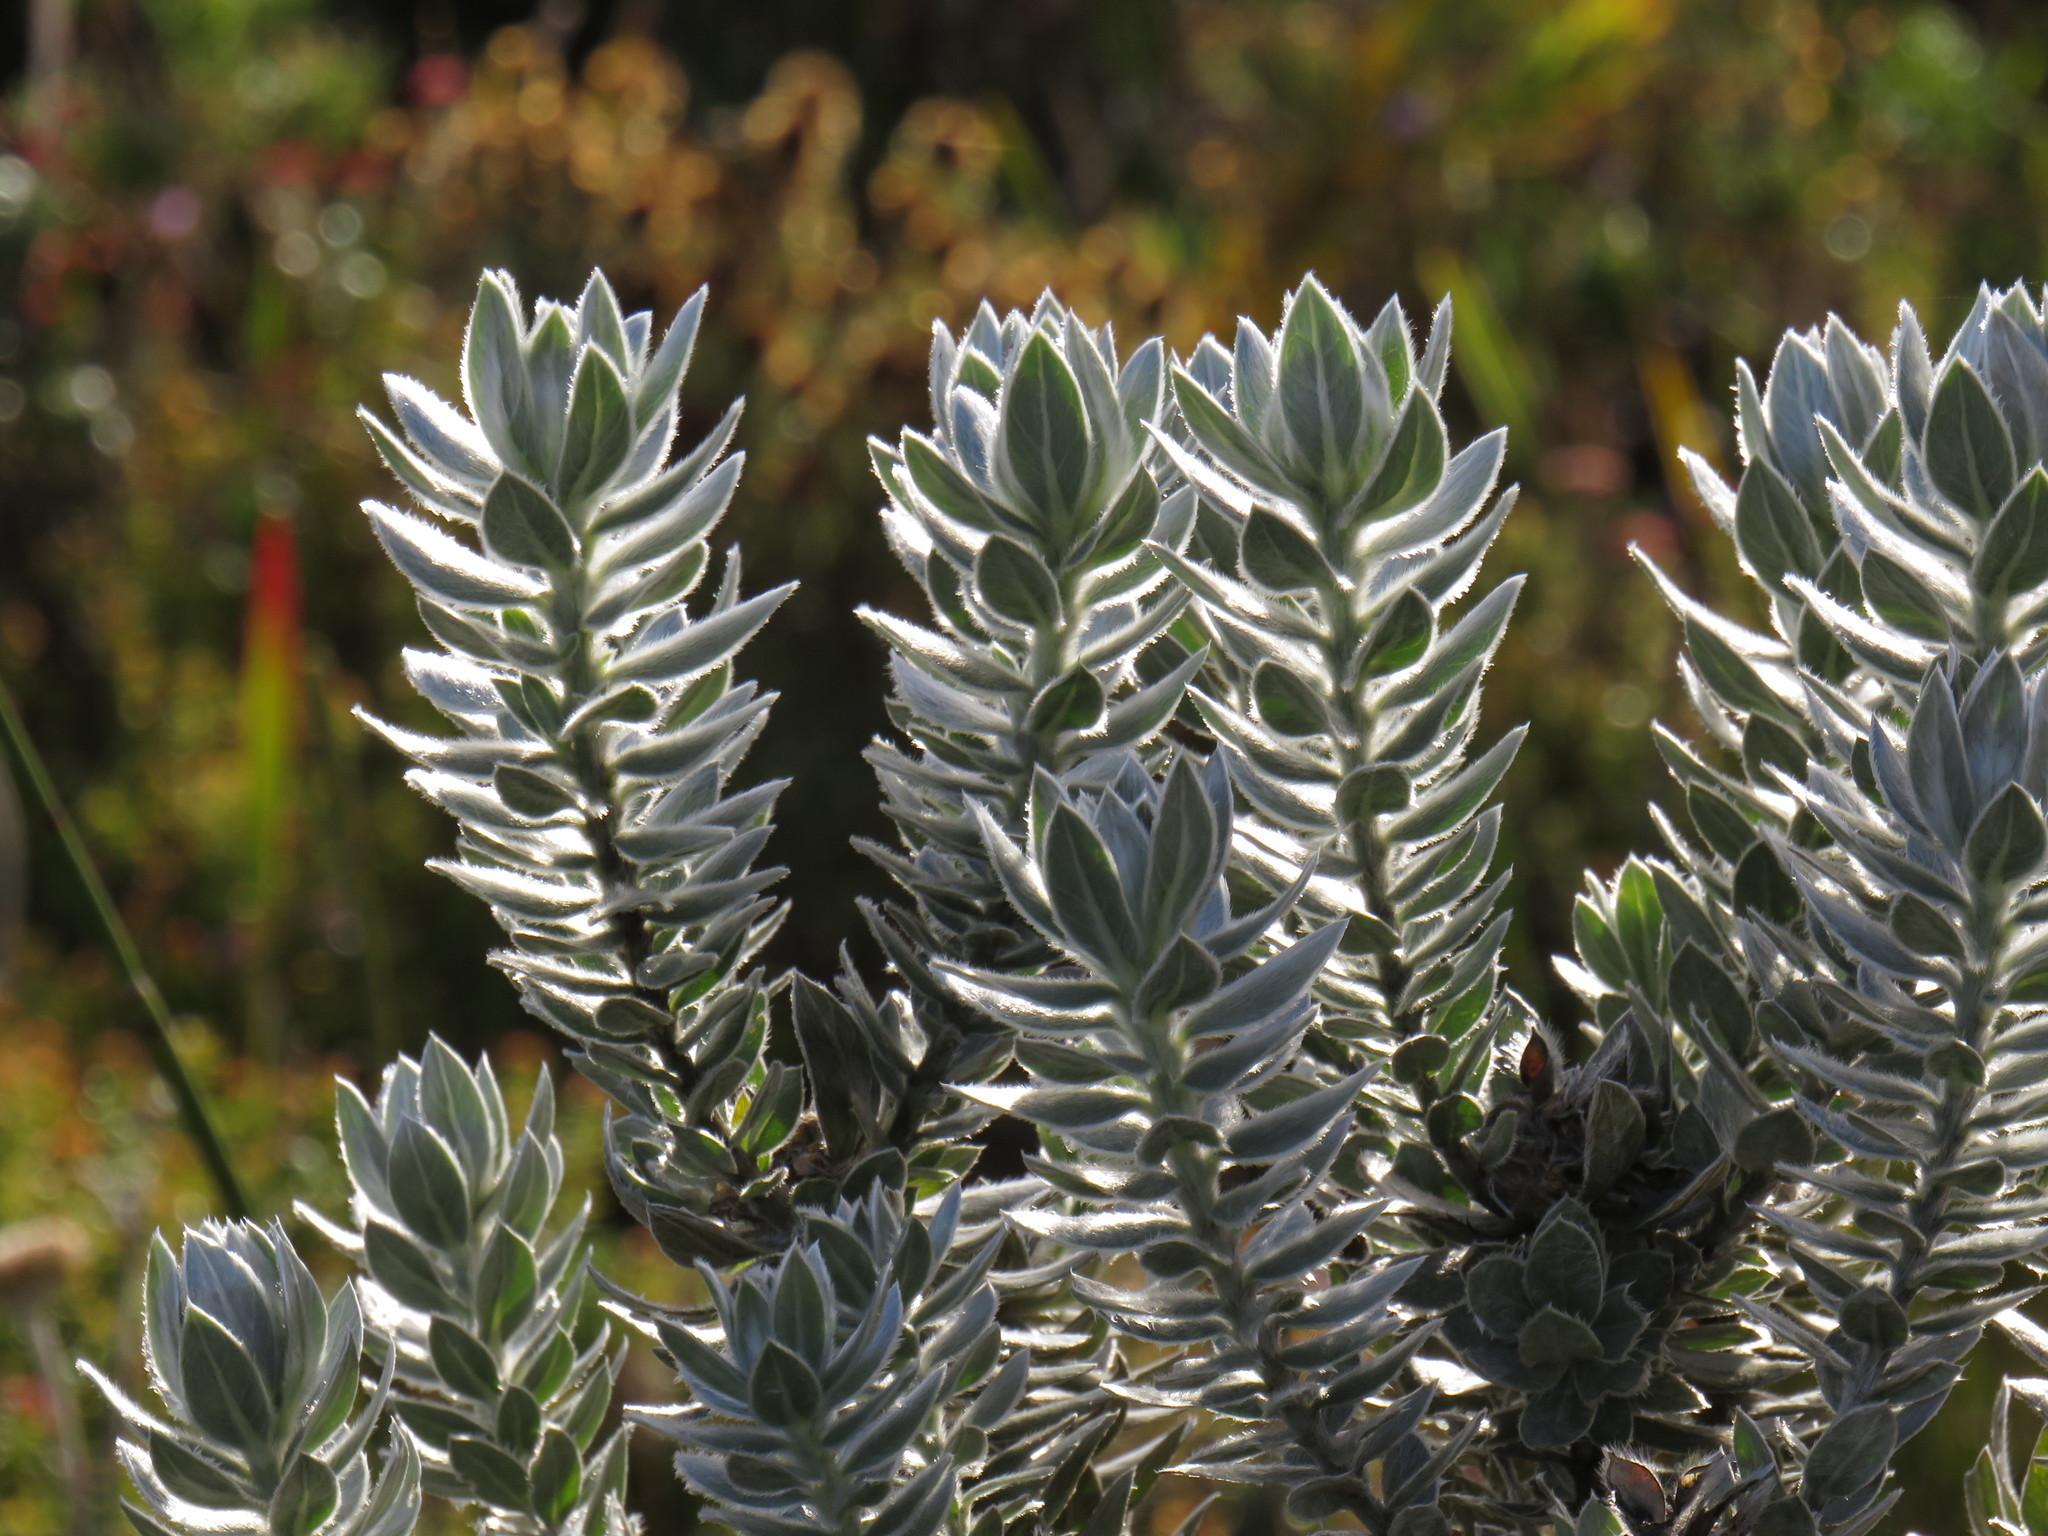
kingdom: Plantae
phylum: Tracheophyta
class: Magnoliopsida
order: Fabales
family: Fabaceae
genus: Xiphotheca
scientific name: Xiphotheca fruticosa
